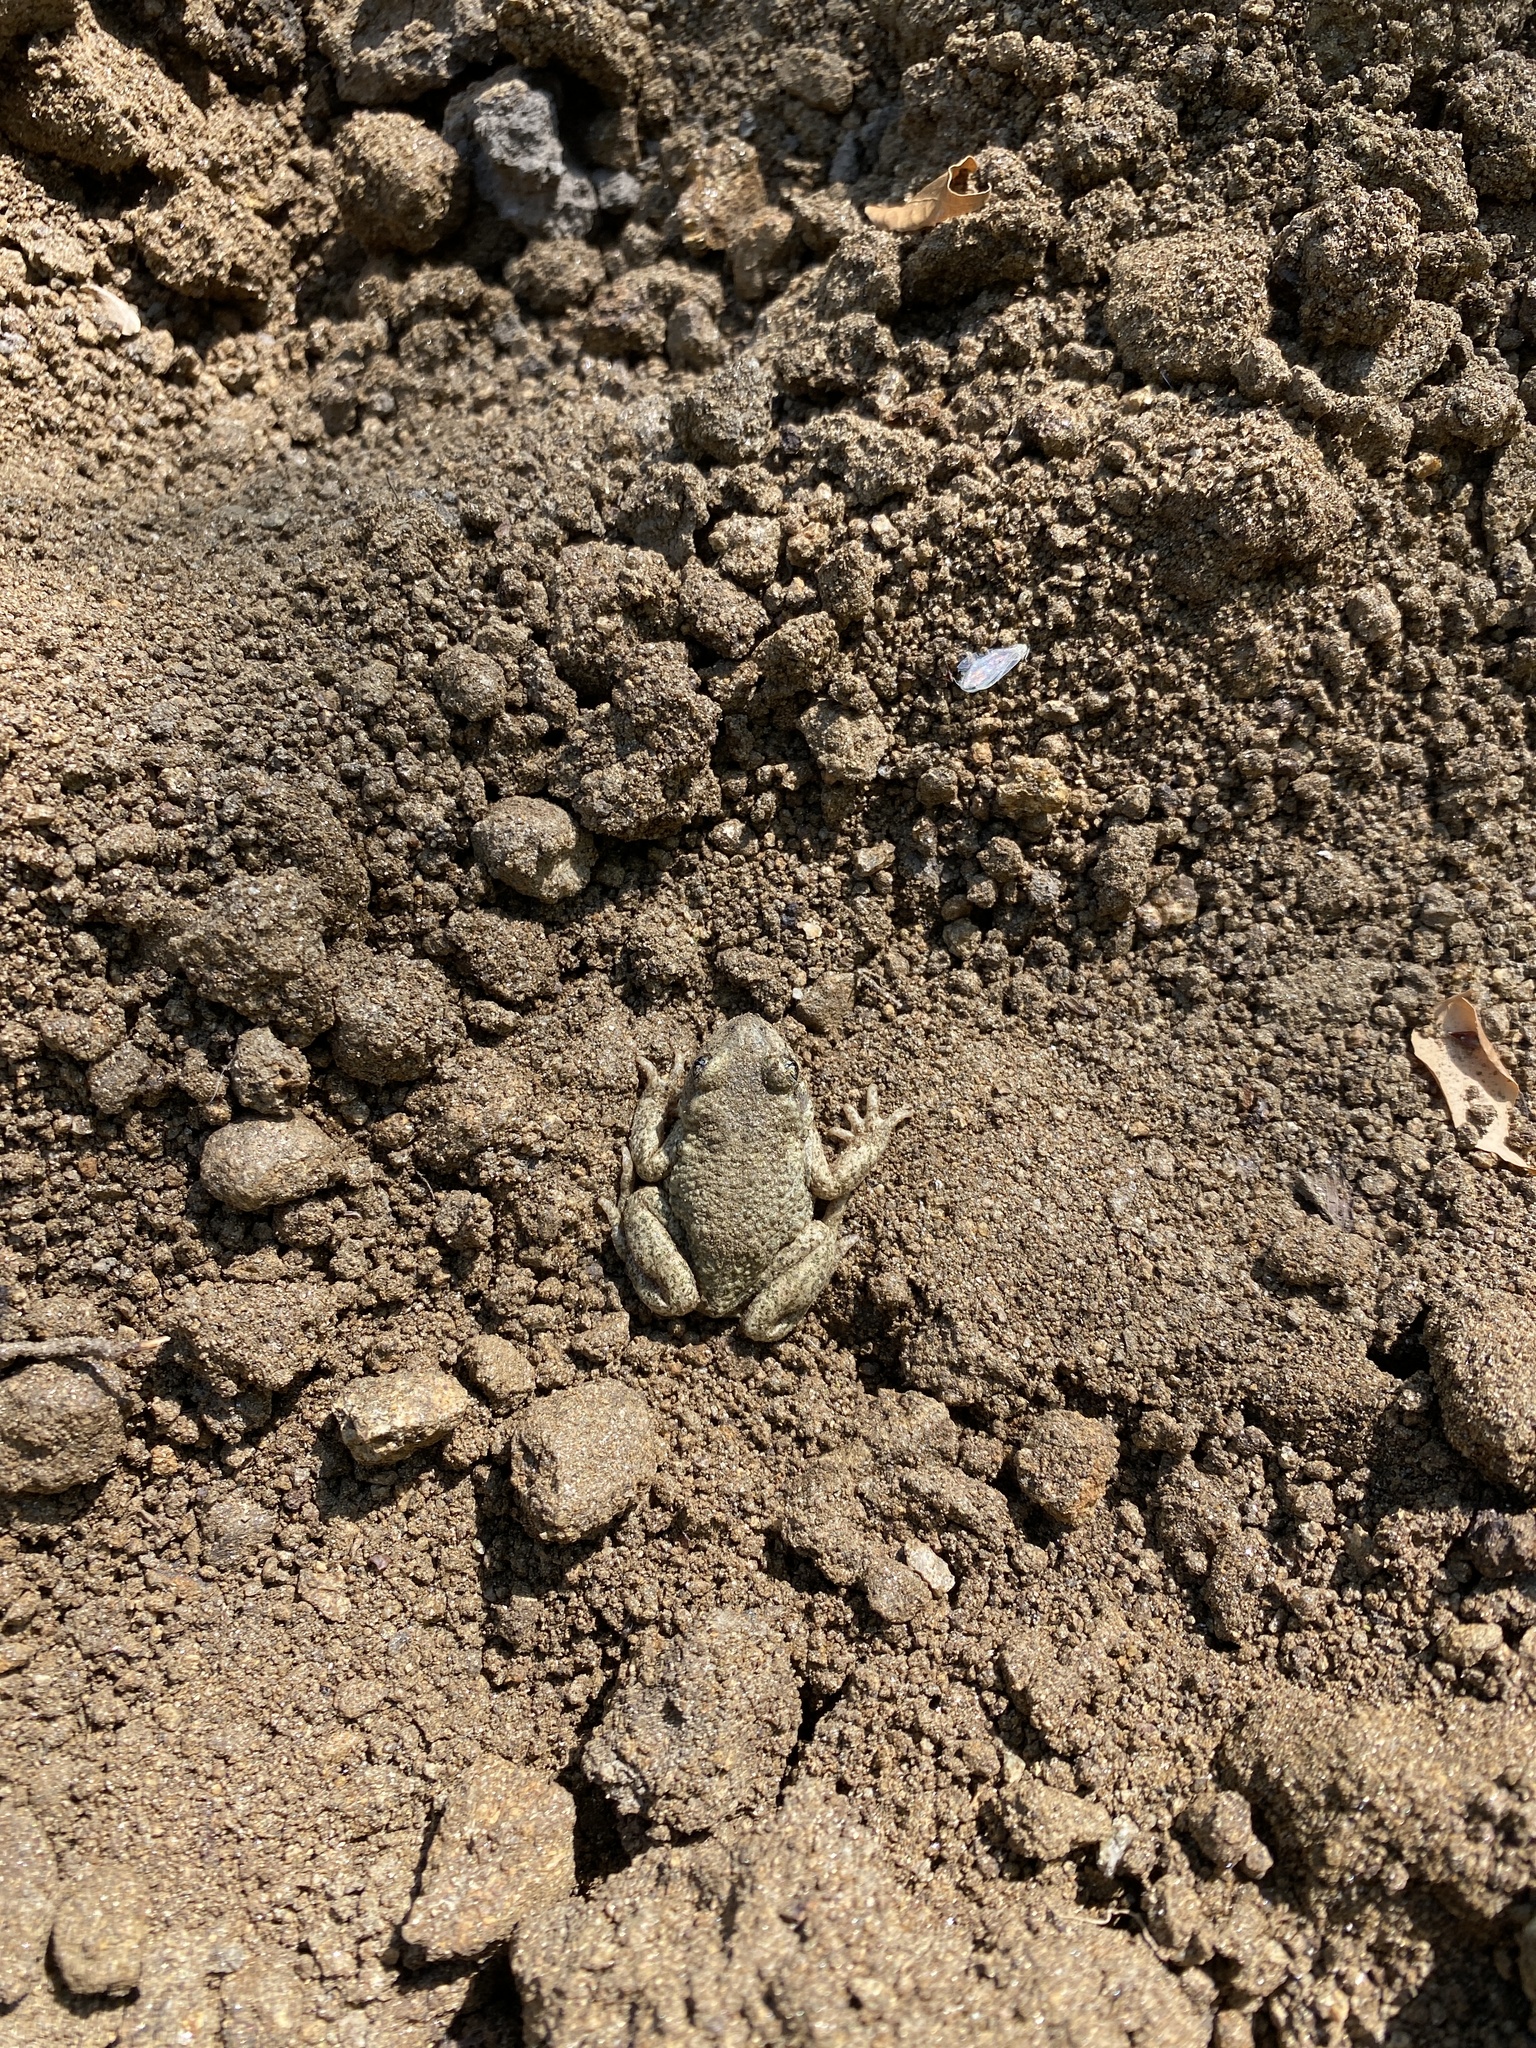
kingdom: Animalia
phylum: Chordata
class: Amphibia
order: Anura
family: Alytidae
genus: Alytes
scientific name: Alytes obstetricans
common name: Midwife toad
